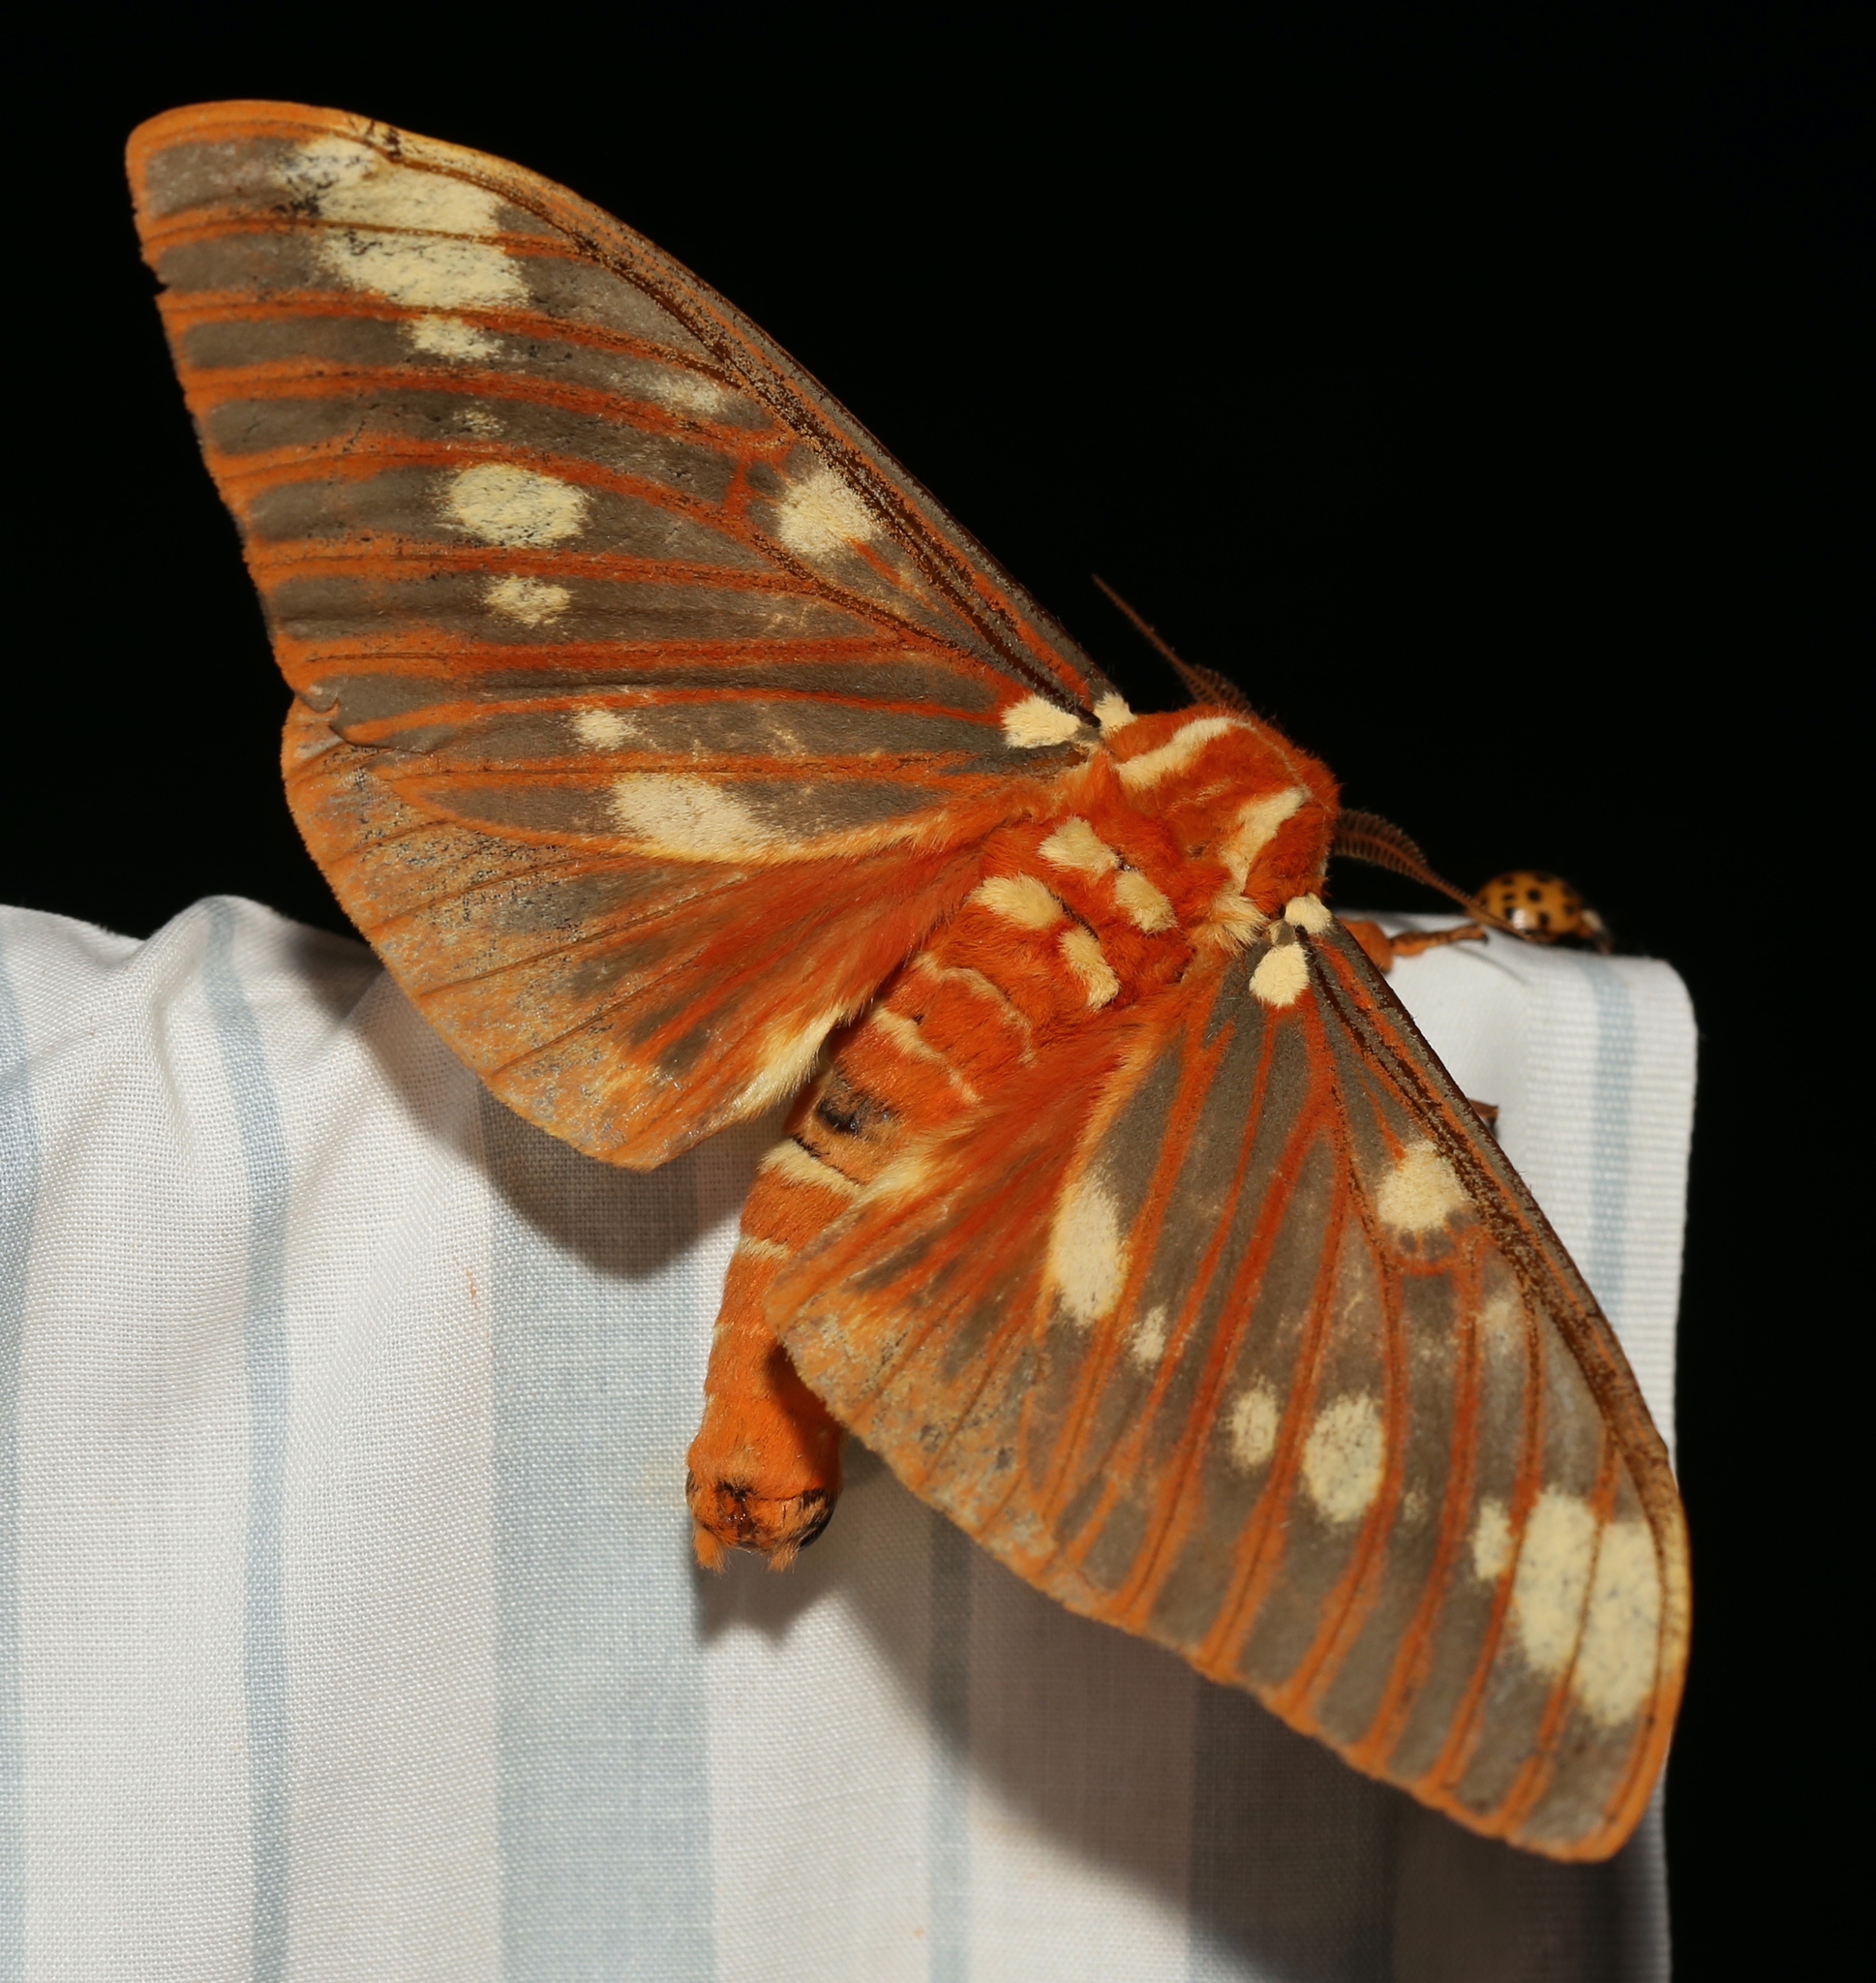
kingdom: Animalia
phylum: Arthropoda
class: Insecta
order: Lepidoptera
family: Saturniidae
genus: Citheronia
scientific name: Citheronia regalis
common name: Hickory horned devil
